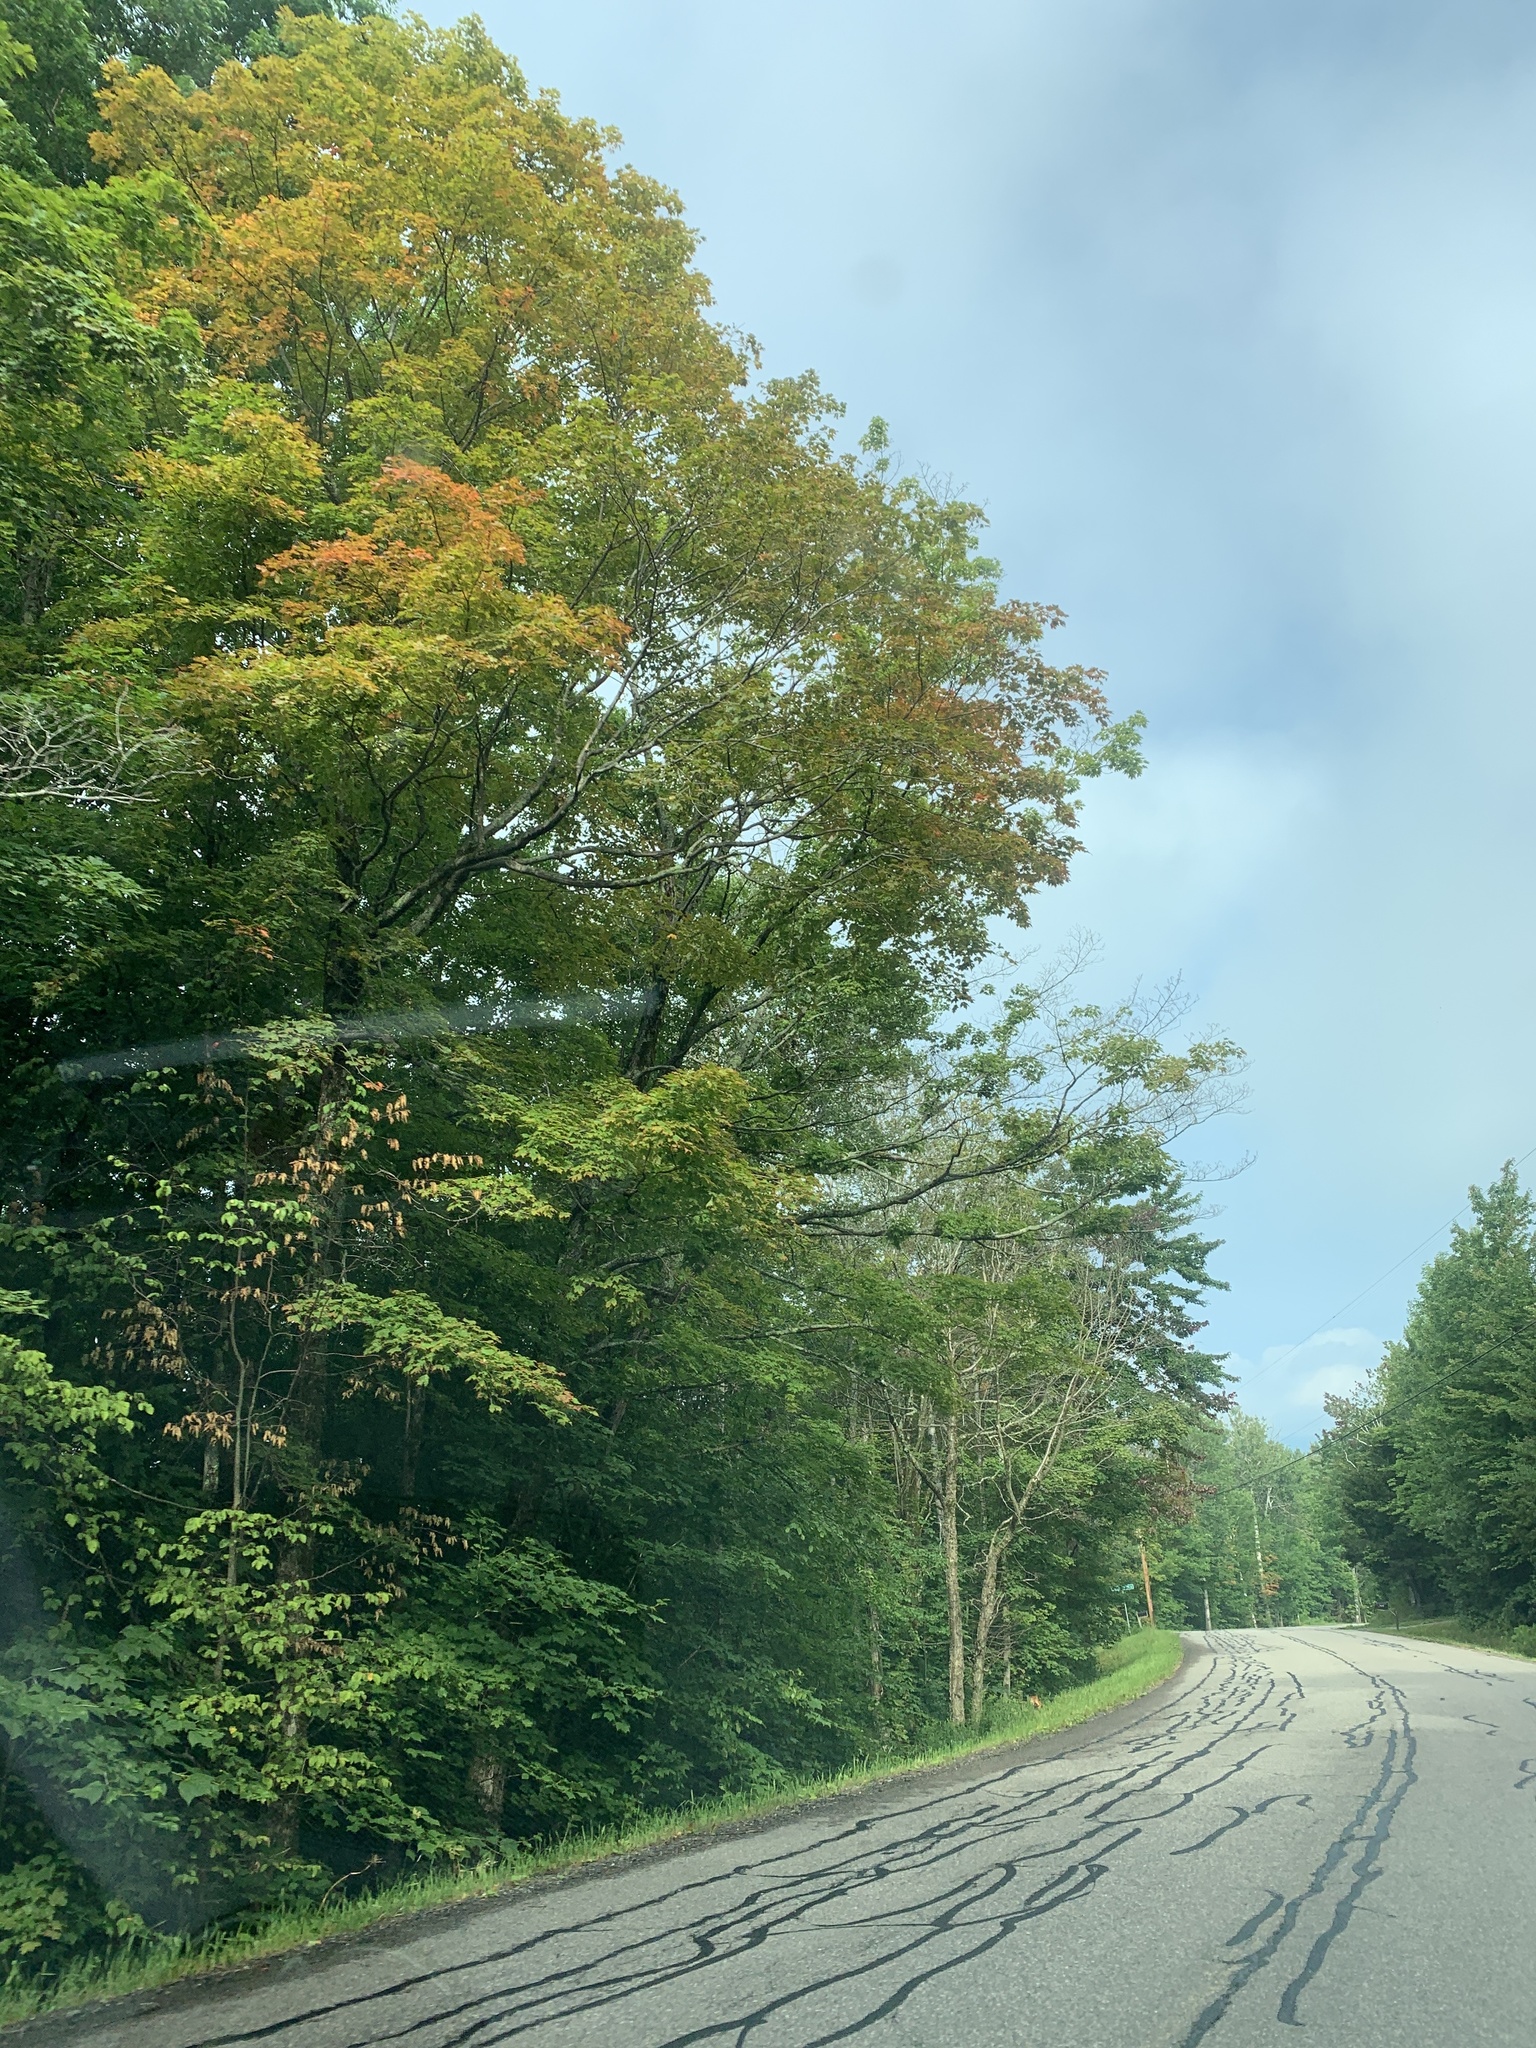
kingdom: Plantae
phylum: Tracheophyta
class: Magnoliopsida
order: Sapindales
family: Sapindaceae
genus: Acer
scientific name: Acer saccharum
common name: Sugar maple
